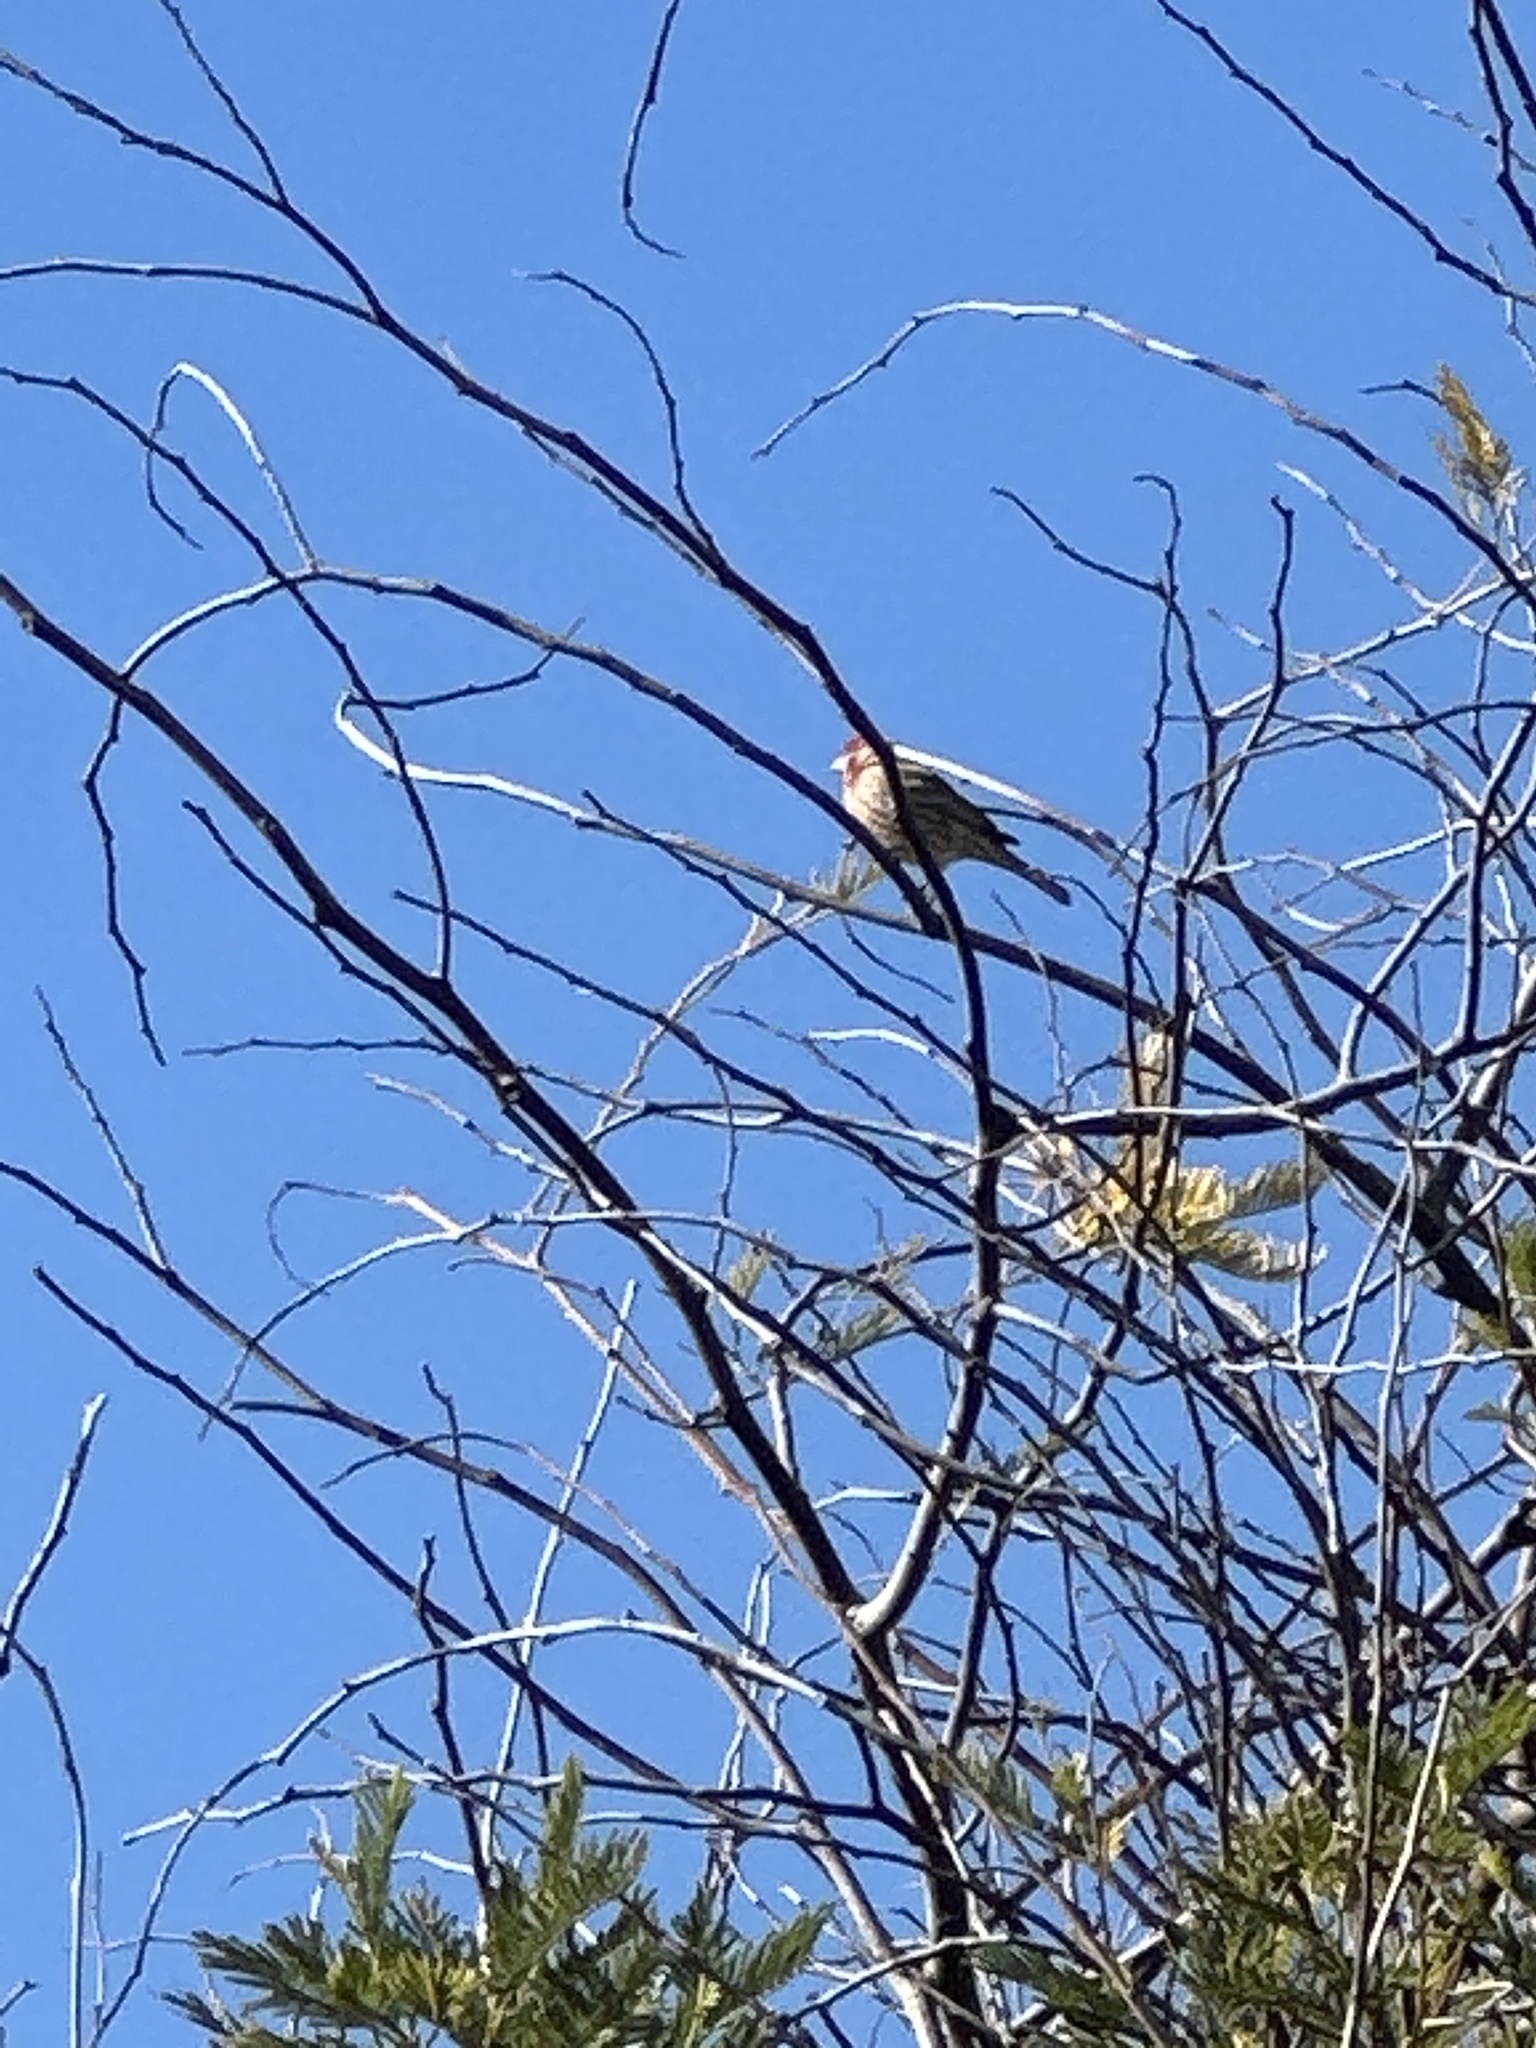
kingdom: Animalia
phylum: Chordata
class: Aves
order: Passeriformes
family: Fringillidae
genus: Haemorhous
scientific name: Haemorhous mexicanus
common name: House finch
